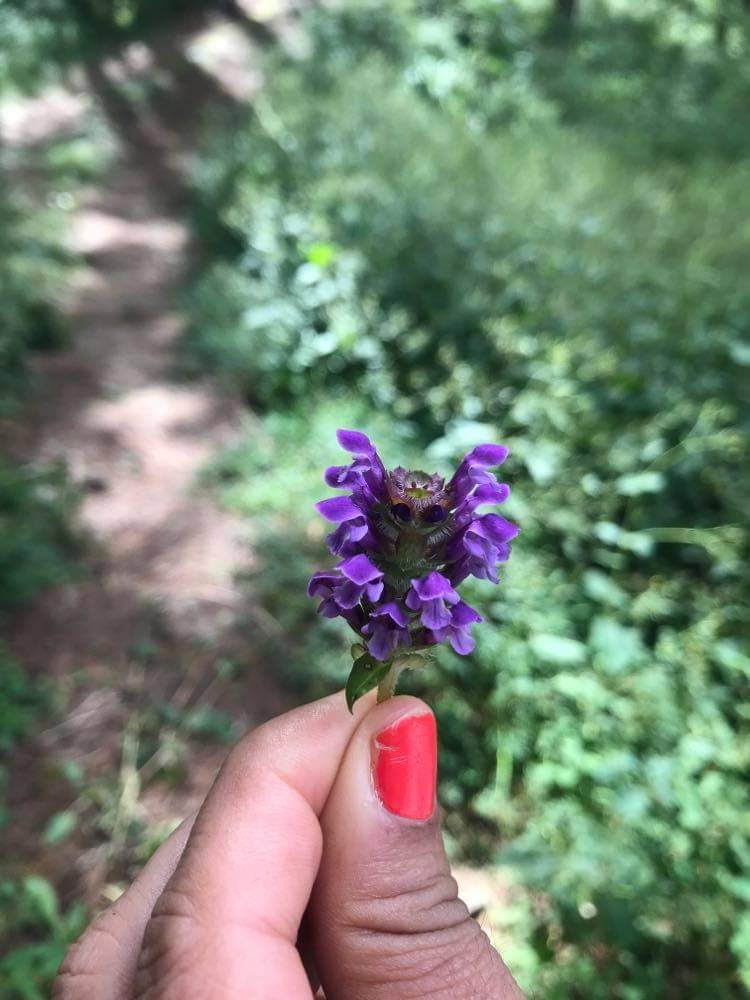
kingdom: Plantae
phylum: Tracheophyta
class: Magnoliopsida
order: Lamiales
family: Lamiaceae
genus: Prunella
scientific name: Prunella vulgaris
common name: Heal-all
